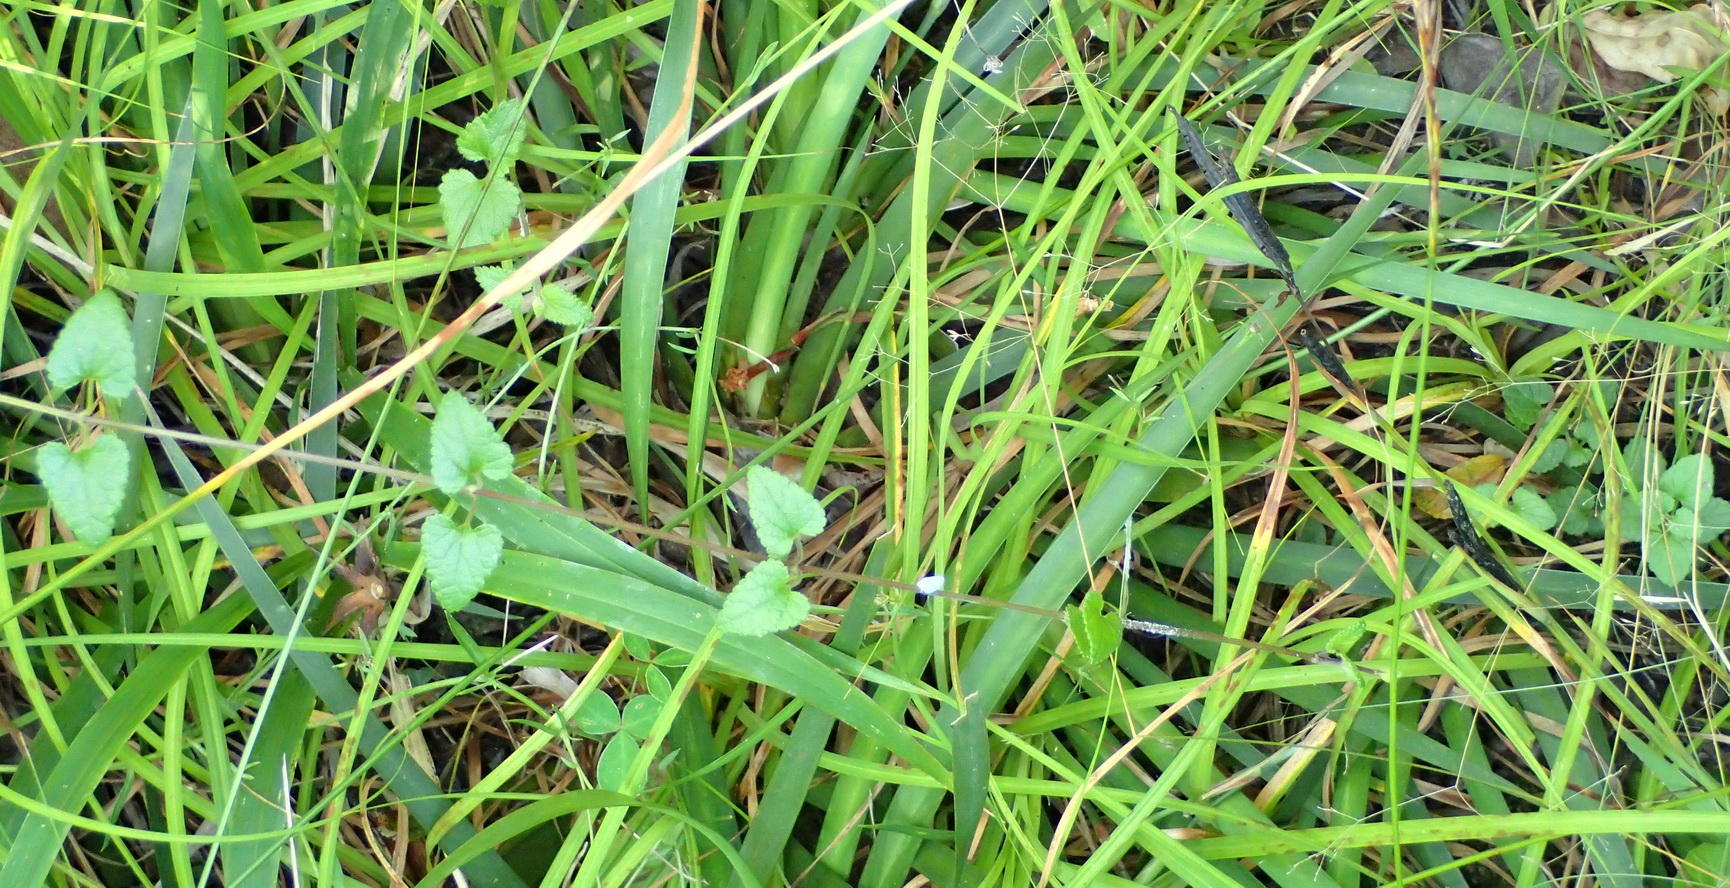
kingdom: Plantae
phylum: Tracheophyta
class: Magnoliopsida
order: Lamiales
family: Lamiaceae
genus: Stachys
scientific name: Stachys aethiopica
